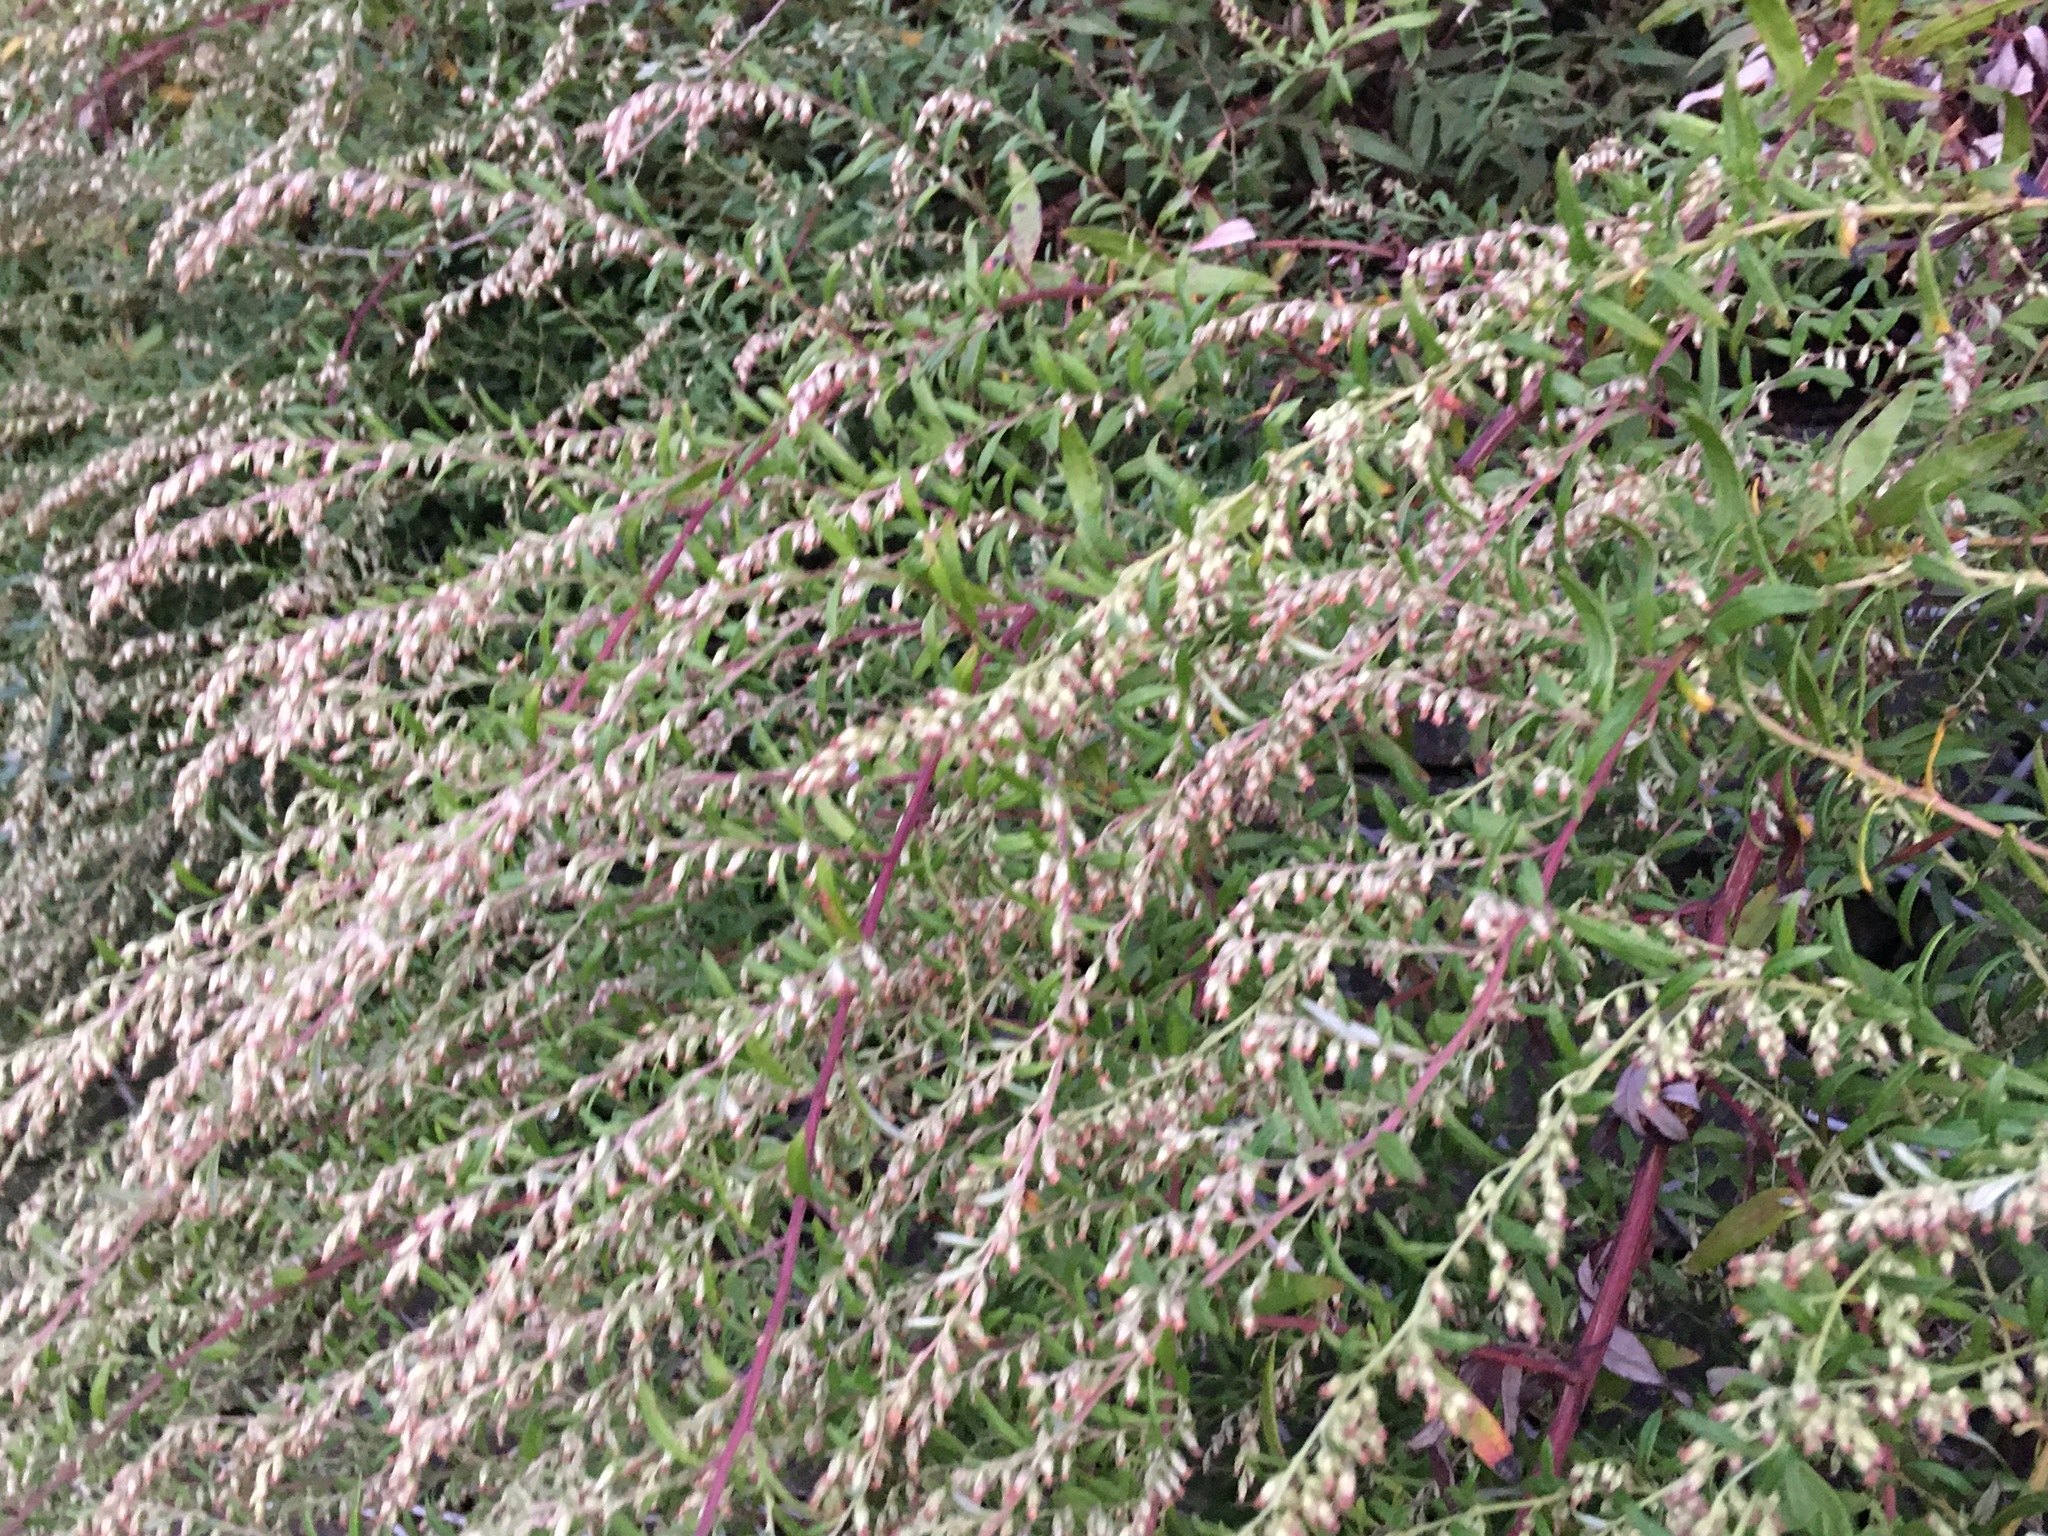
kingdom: Plantae
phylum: Tracheophyta
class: Magnoliopsida
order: Asterales
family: Asteraceae
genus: Artemisia
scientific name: Artemisia vulgaris
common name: Mugwort
